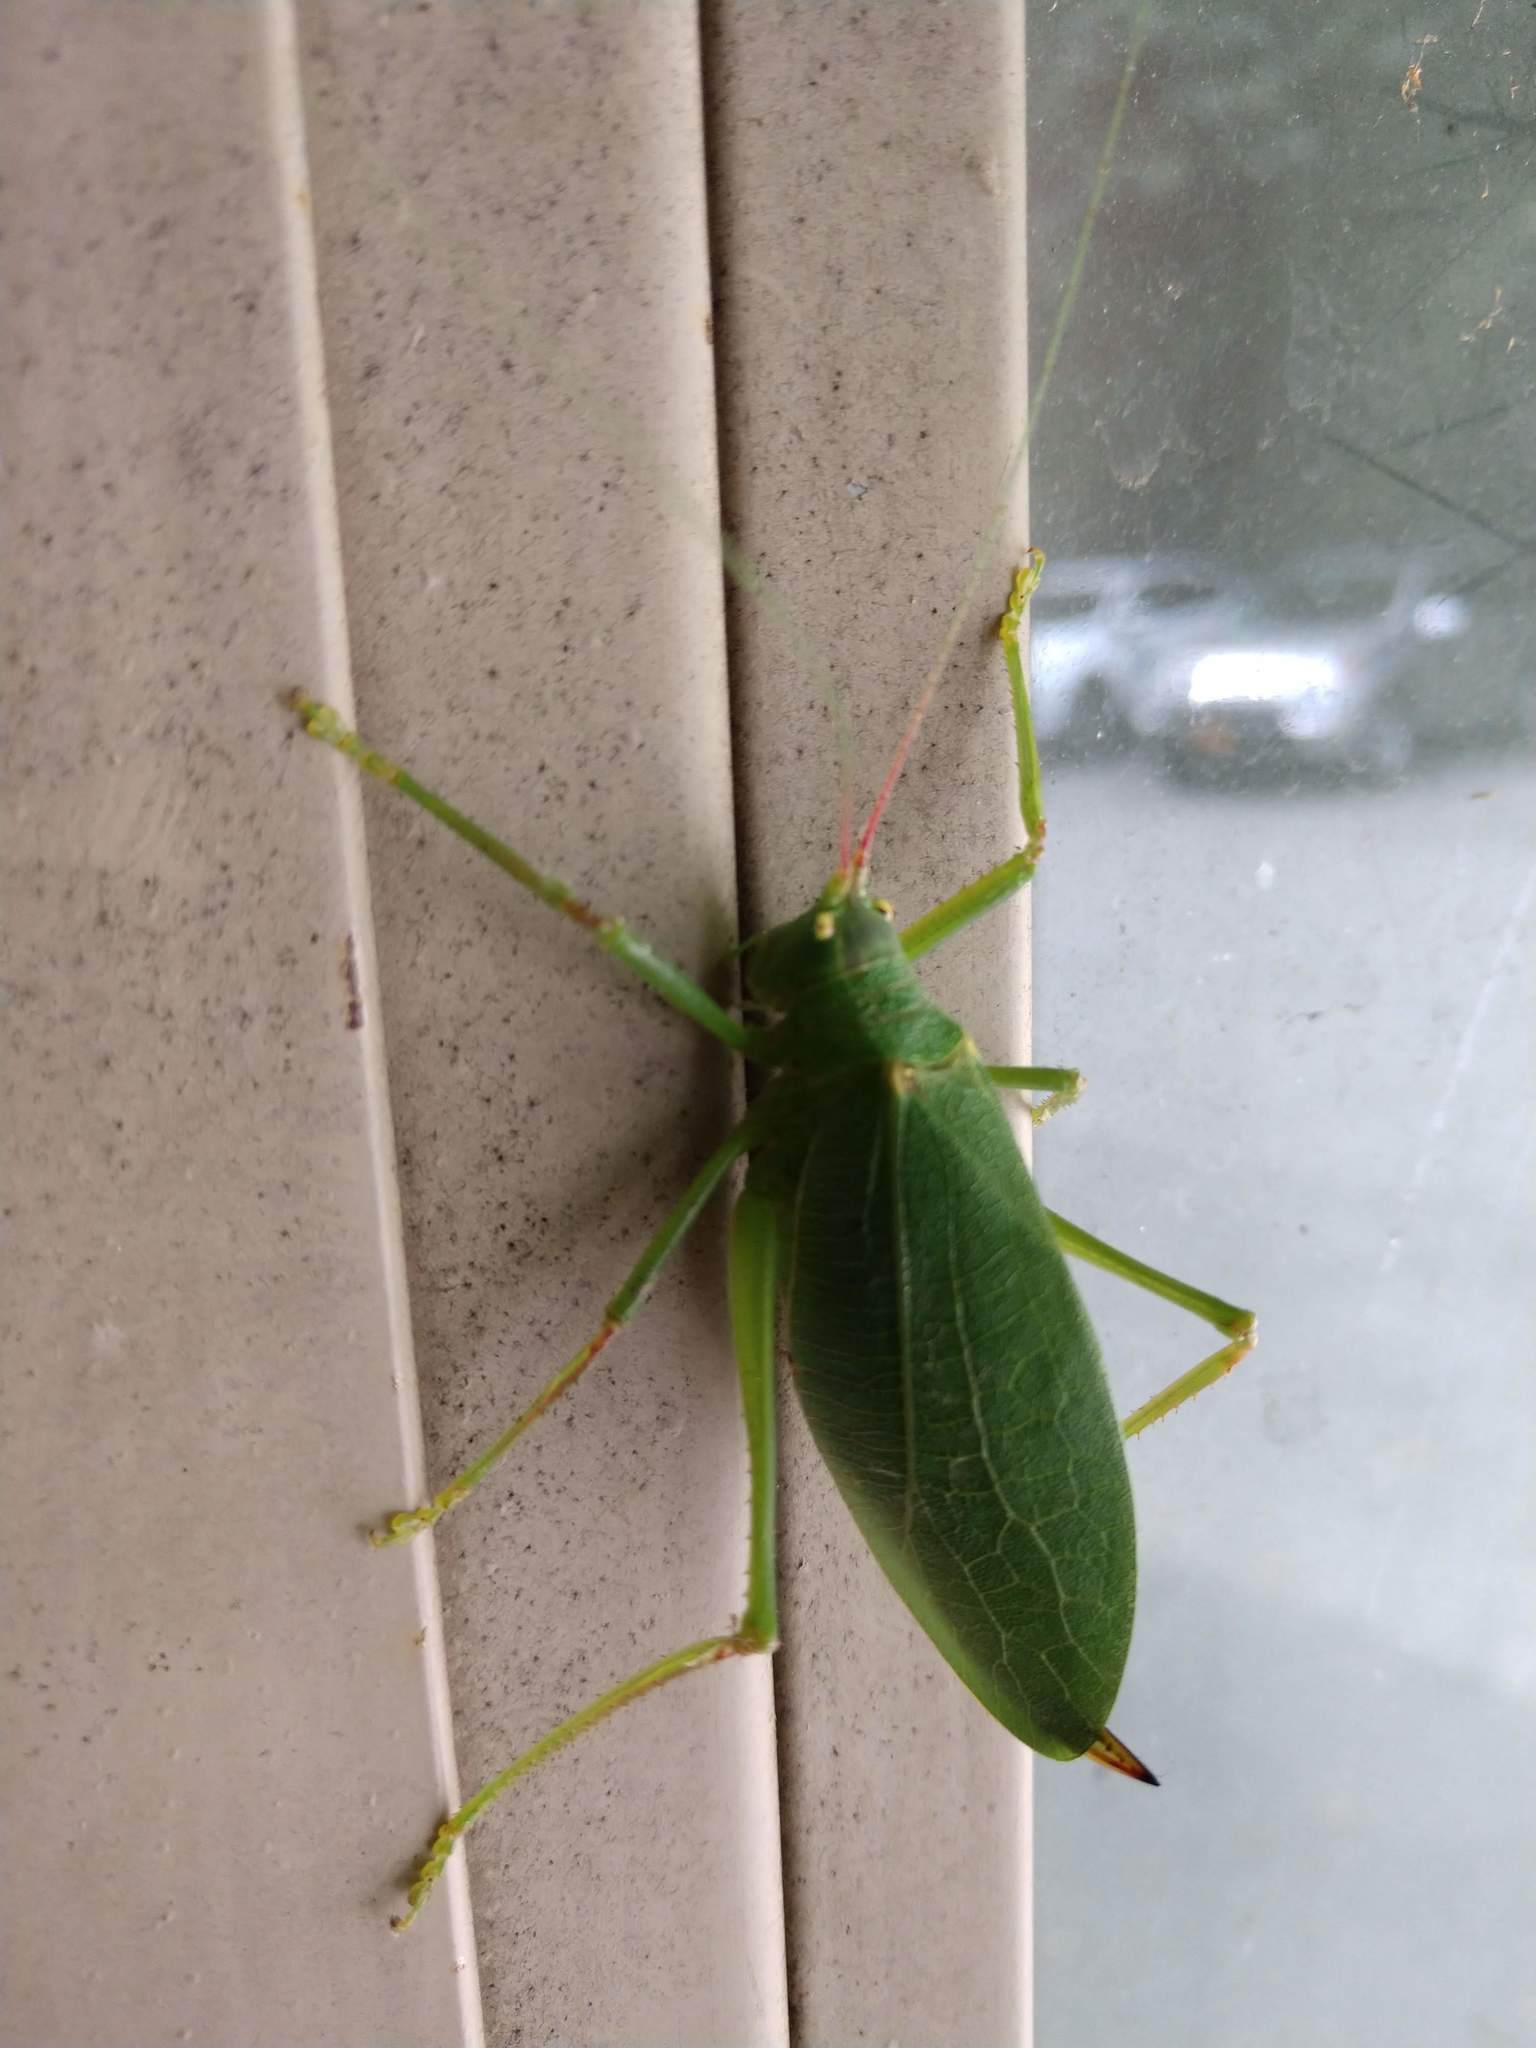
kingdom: Animalia
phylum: Arthropoda
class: Insecta
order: Orthoptera
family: Tettigoniidae
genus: Pterophylla
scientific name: Pterophylla camellifolia
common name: Common true katydid
